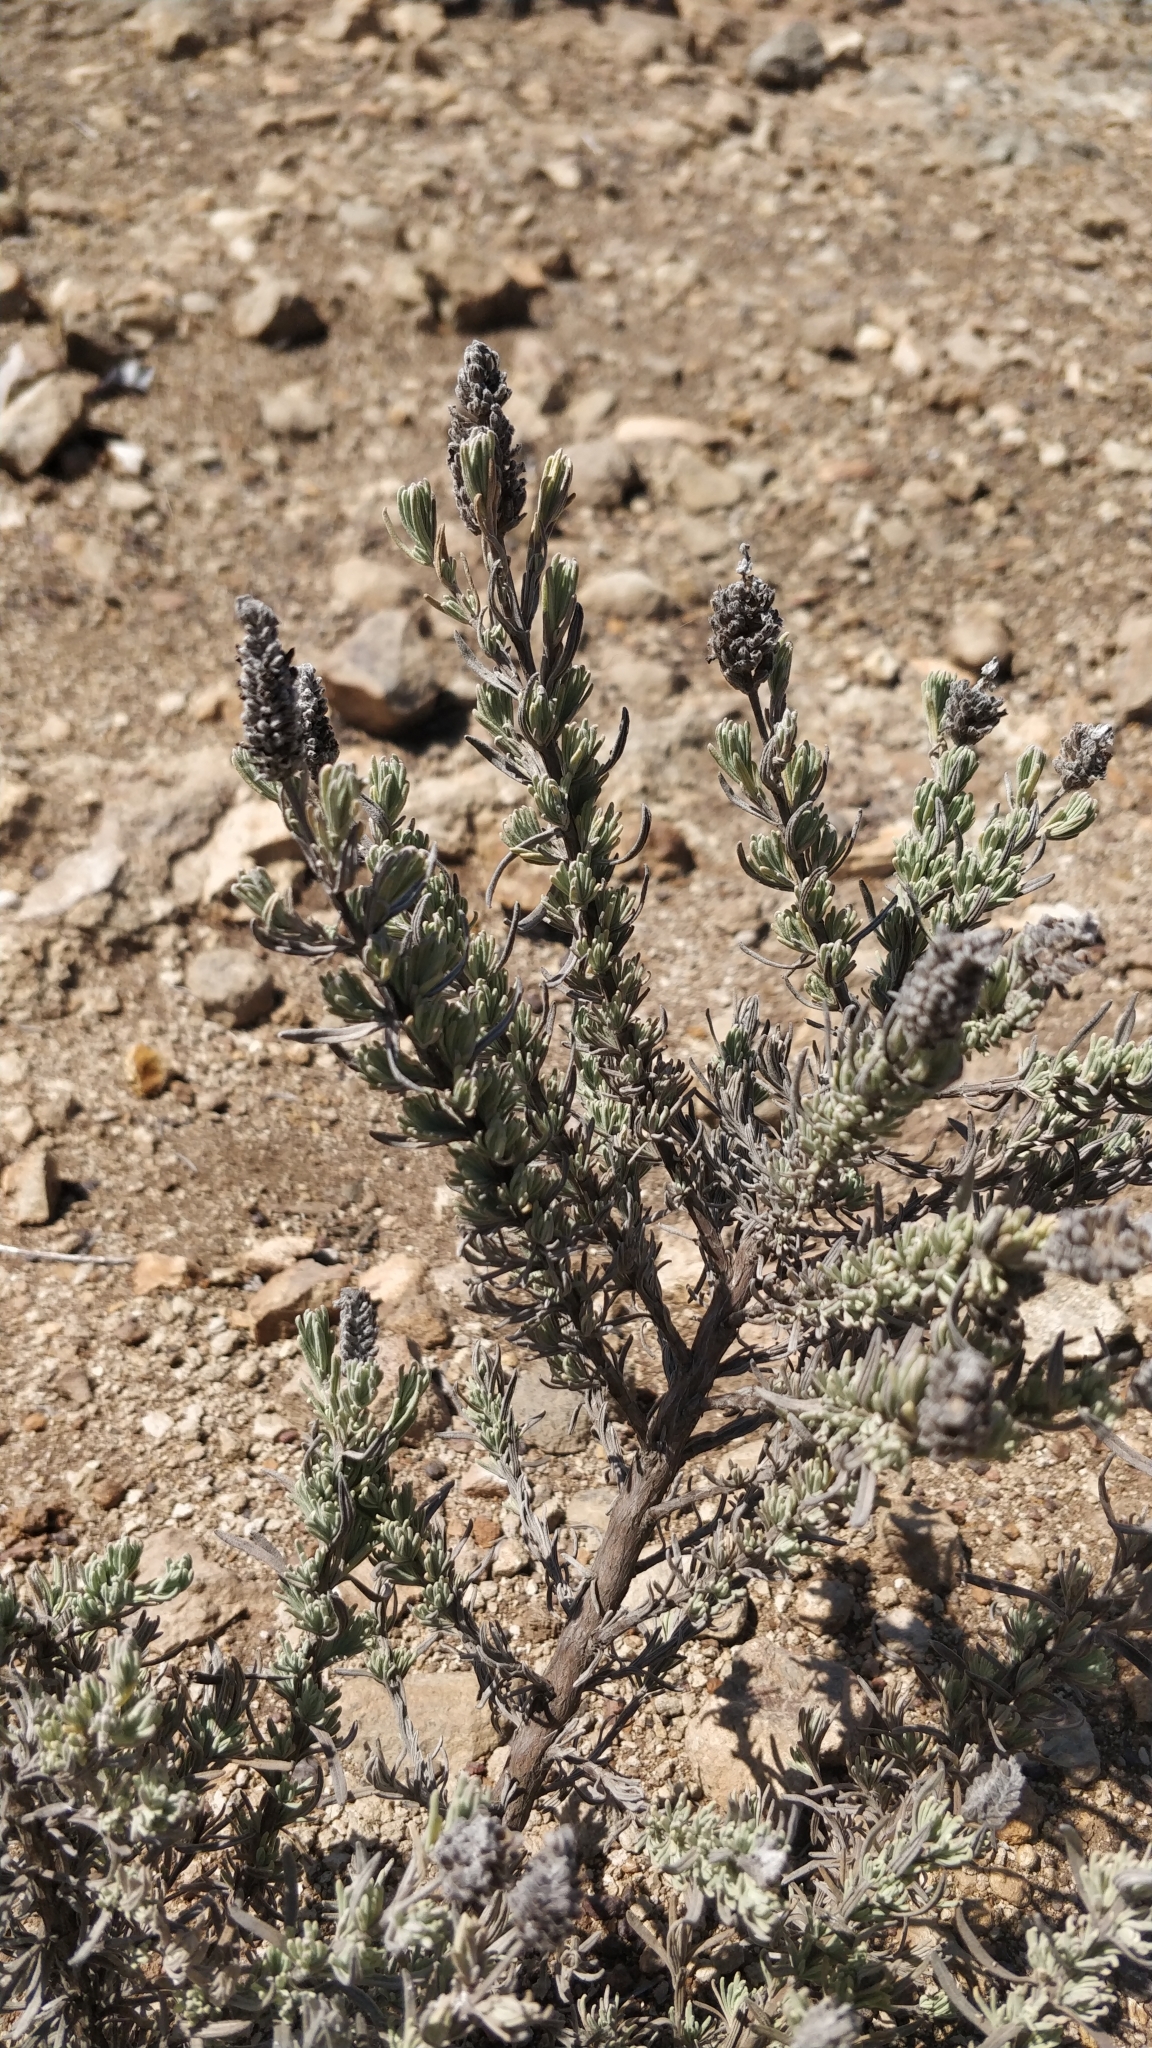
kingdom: Plantae
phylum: Tracheophyta
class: Magnoliopsida
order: Lamiales
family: Lamiaceae
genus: Lavandula
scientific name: Lavandula stoechas
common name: French lavender
